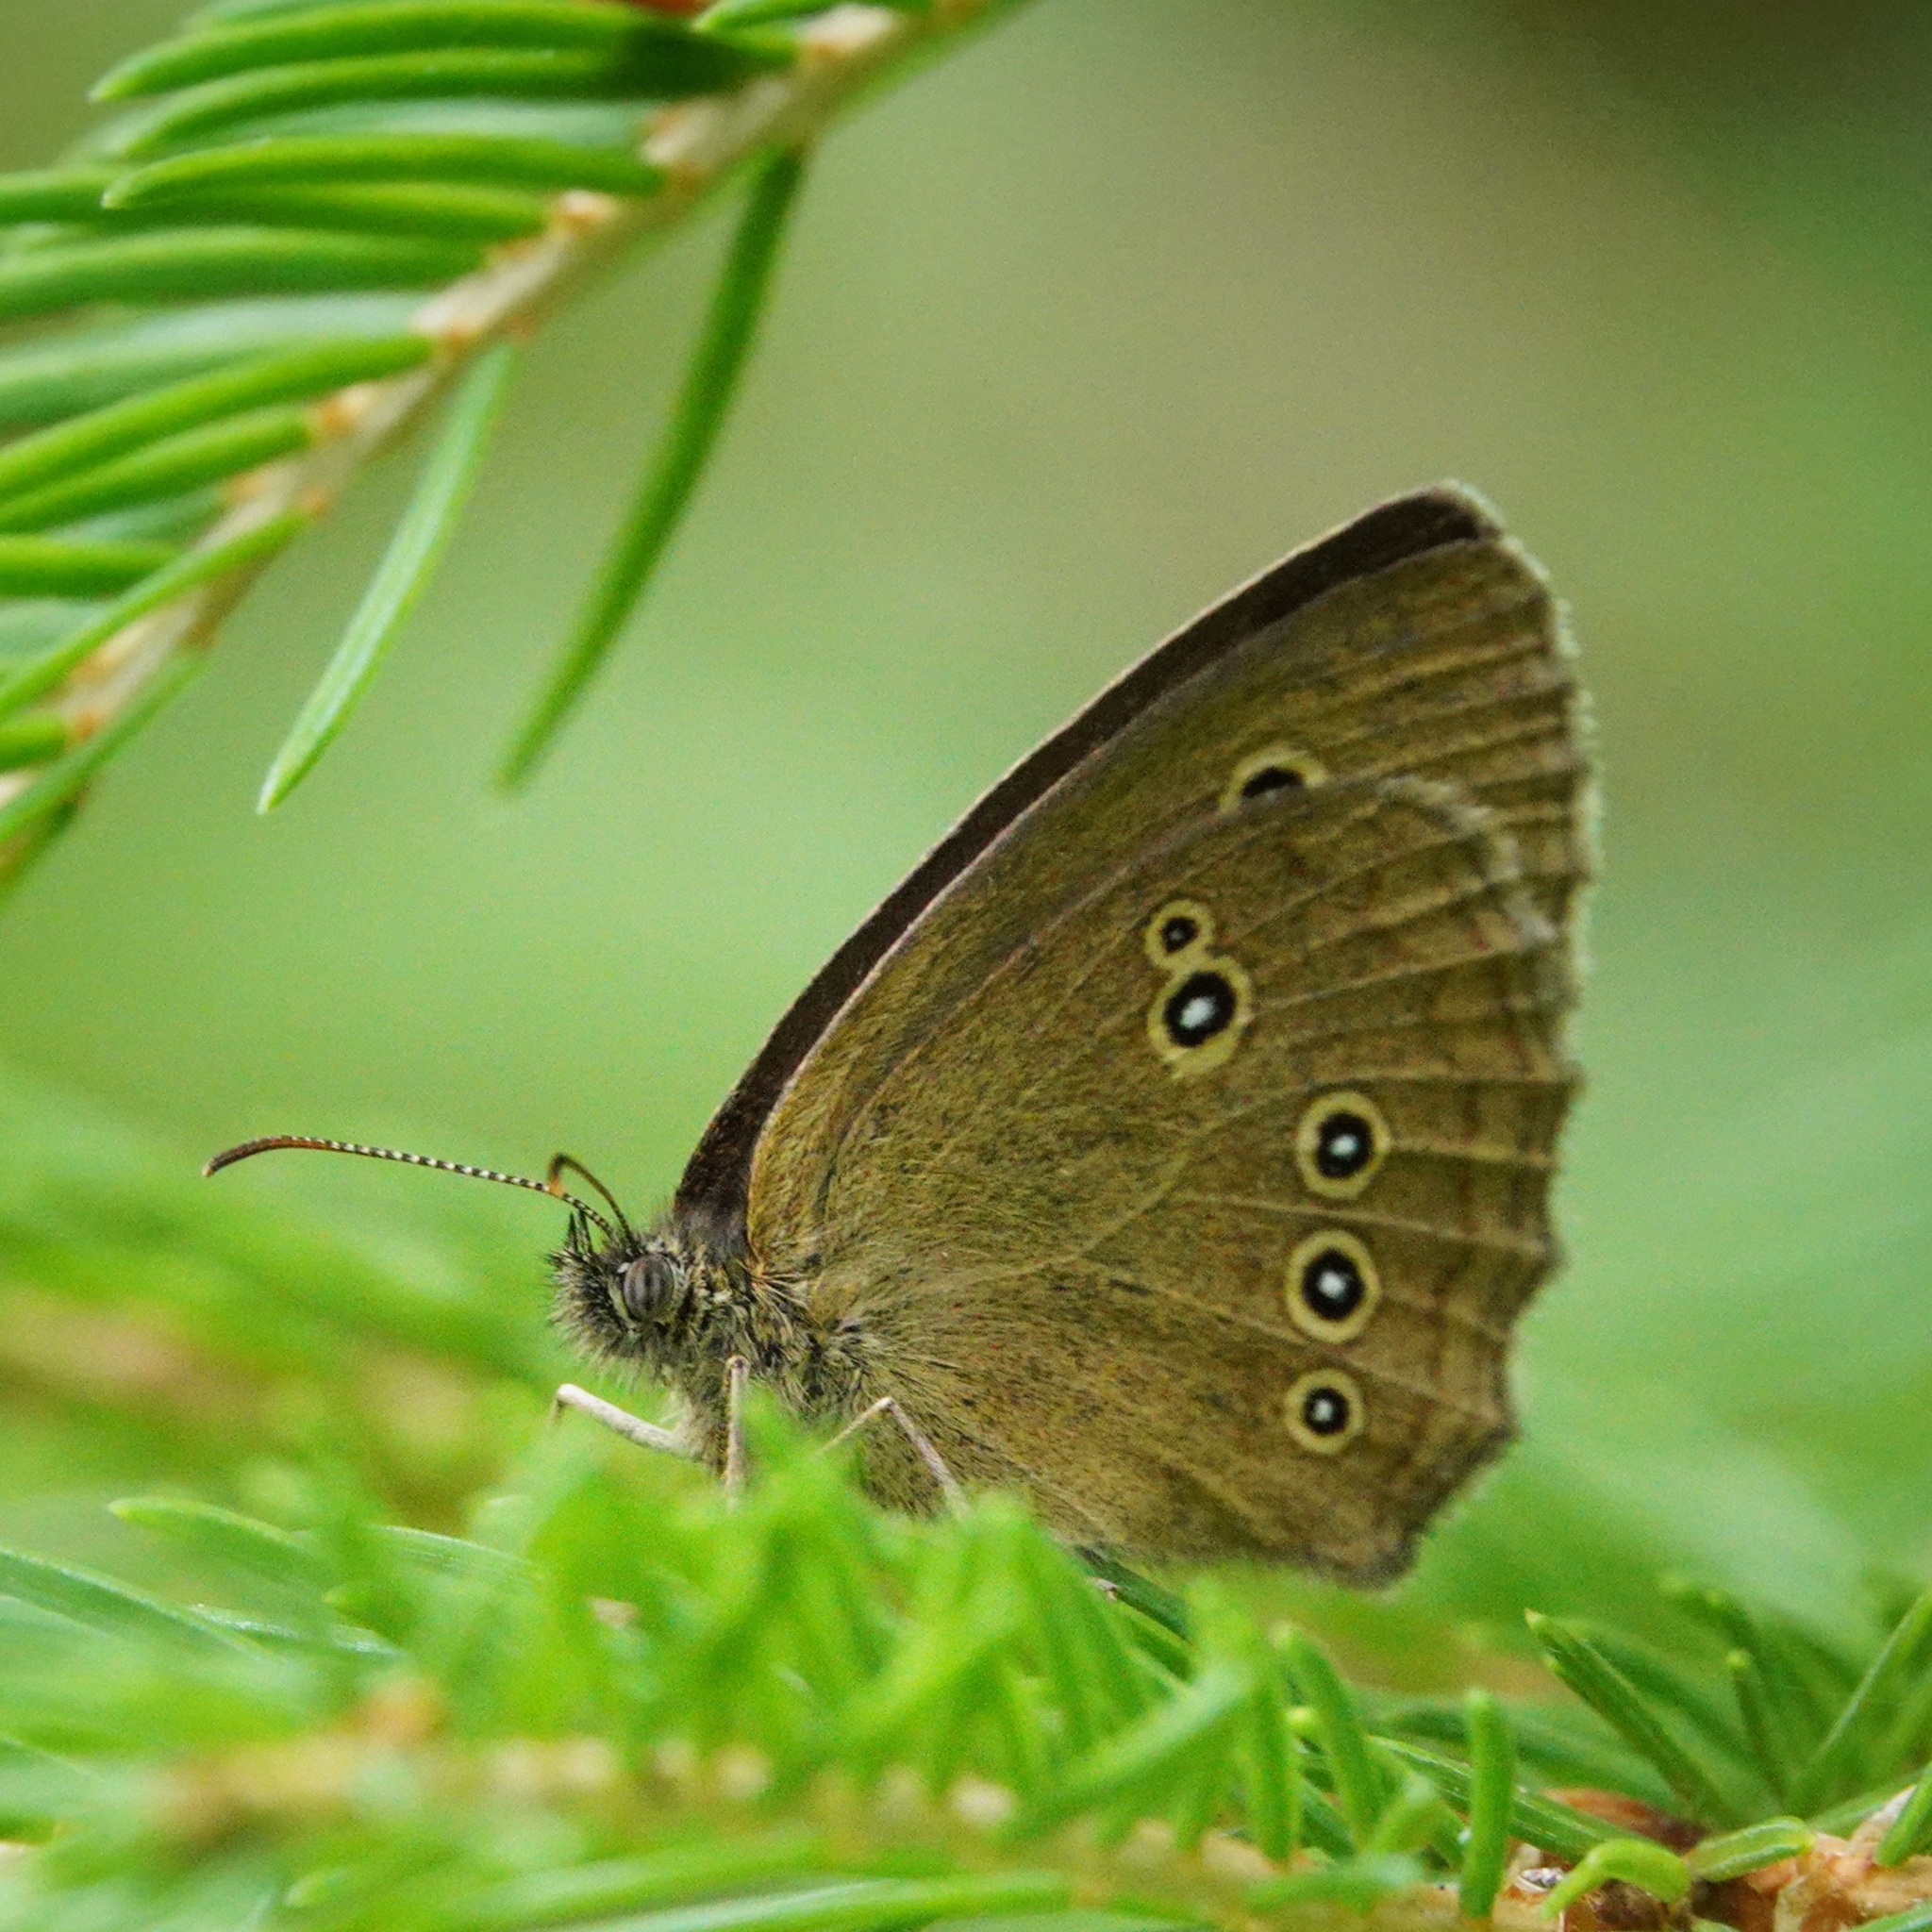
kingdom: Animalia
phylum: Arthropoda
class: Insecta
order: Lepidoptera
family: Nymphalidae
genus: Aphantopus
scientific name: Aphantopus hyperantus
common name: Ringlet
